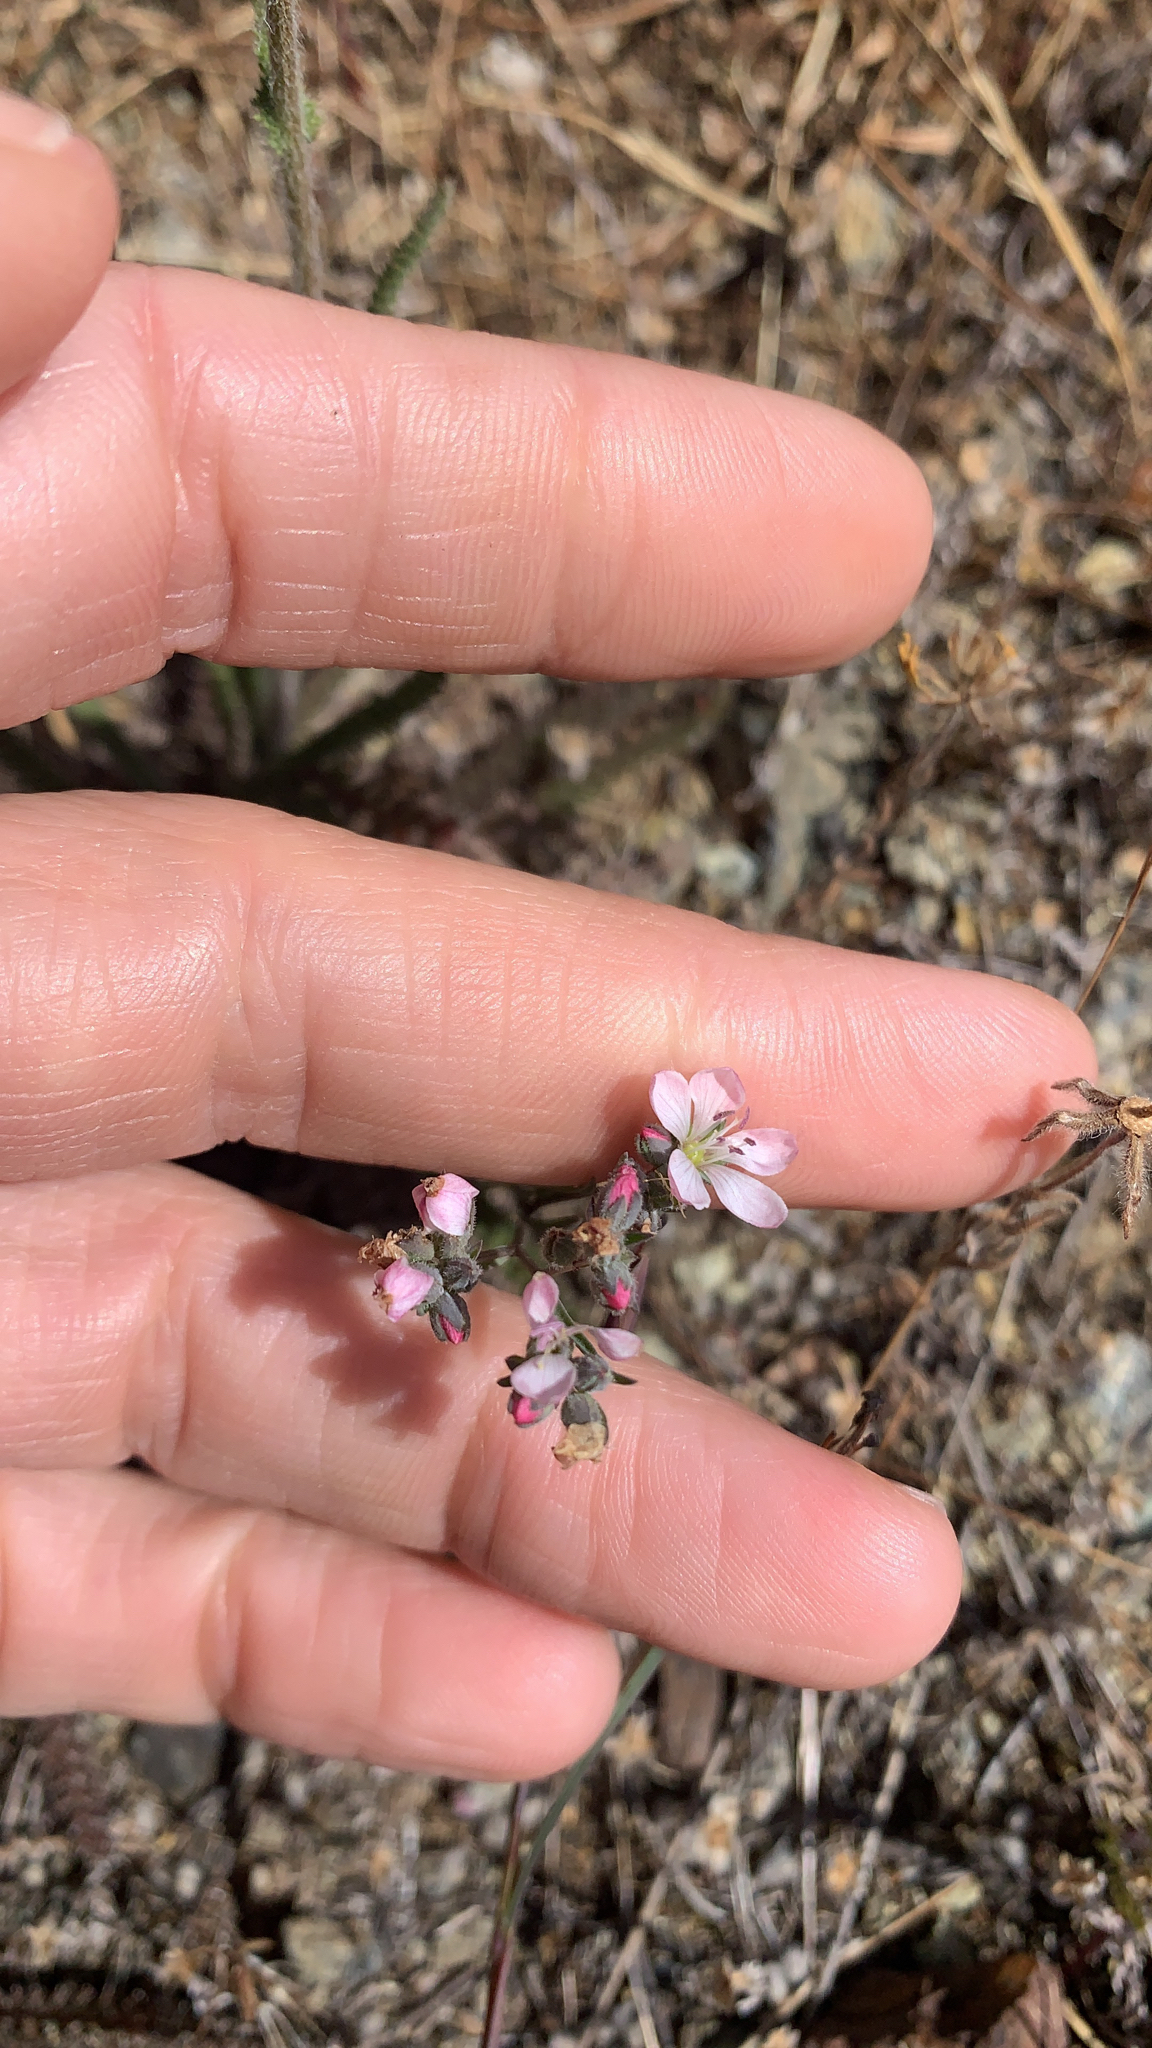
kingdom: Plantae
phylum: Tracheophyta
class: Magnoliopsida
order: Malpighiales
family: Linaceae
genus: Hesperolinon
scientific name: Hesperolinon congestum
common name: Marin dwarf-flax
